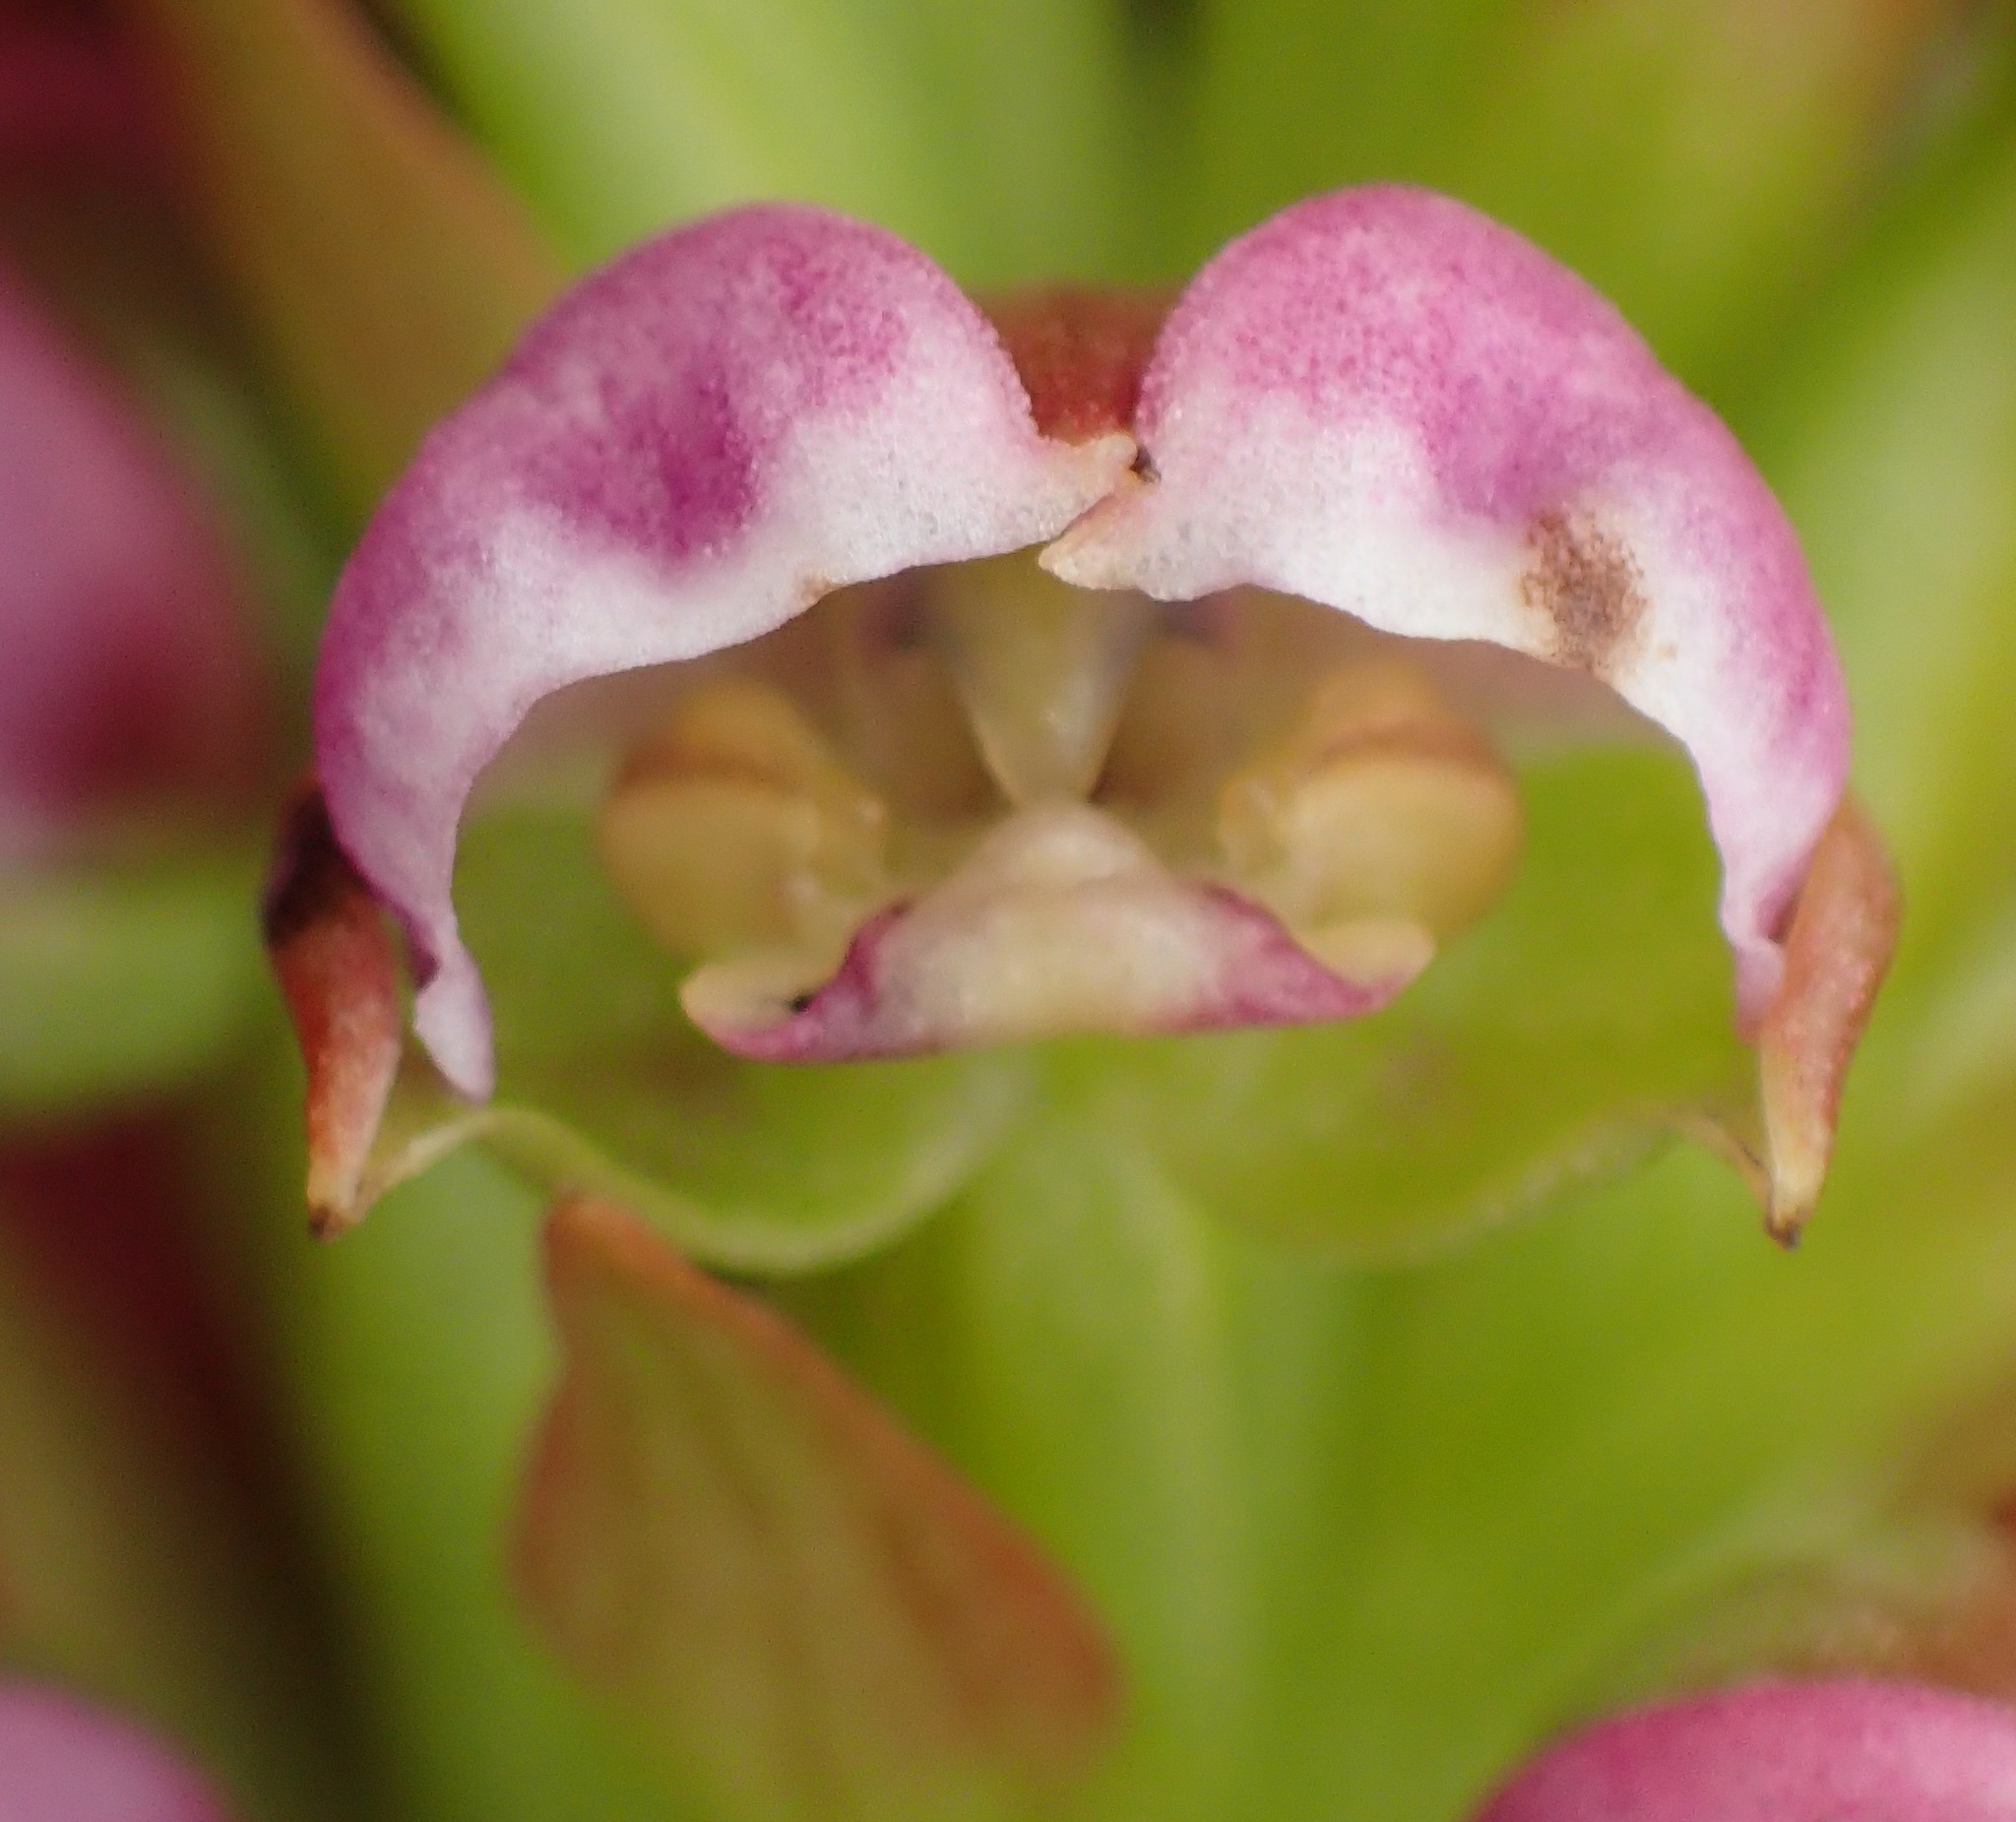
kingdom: Plantae
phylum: Tracheophyta
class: Liliopsida
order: Asparagales
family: Orchidaceae
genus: Evotella
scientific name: Evotella carnosa
